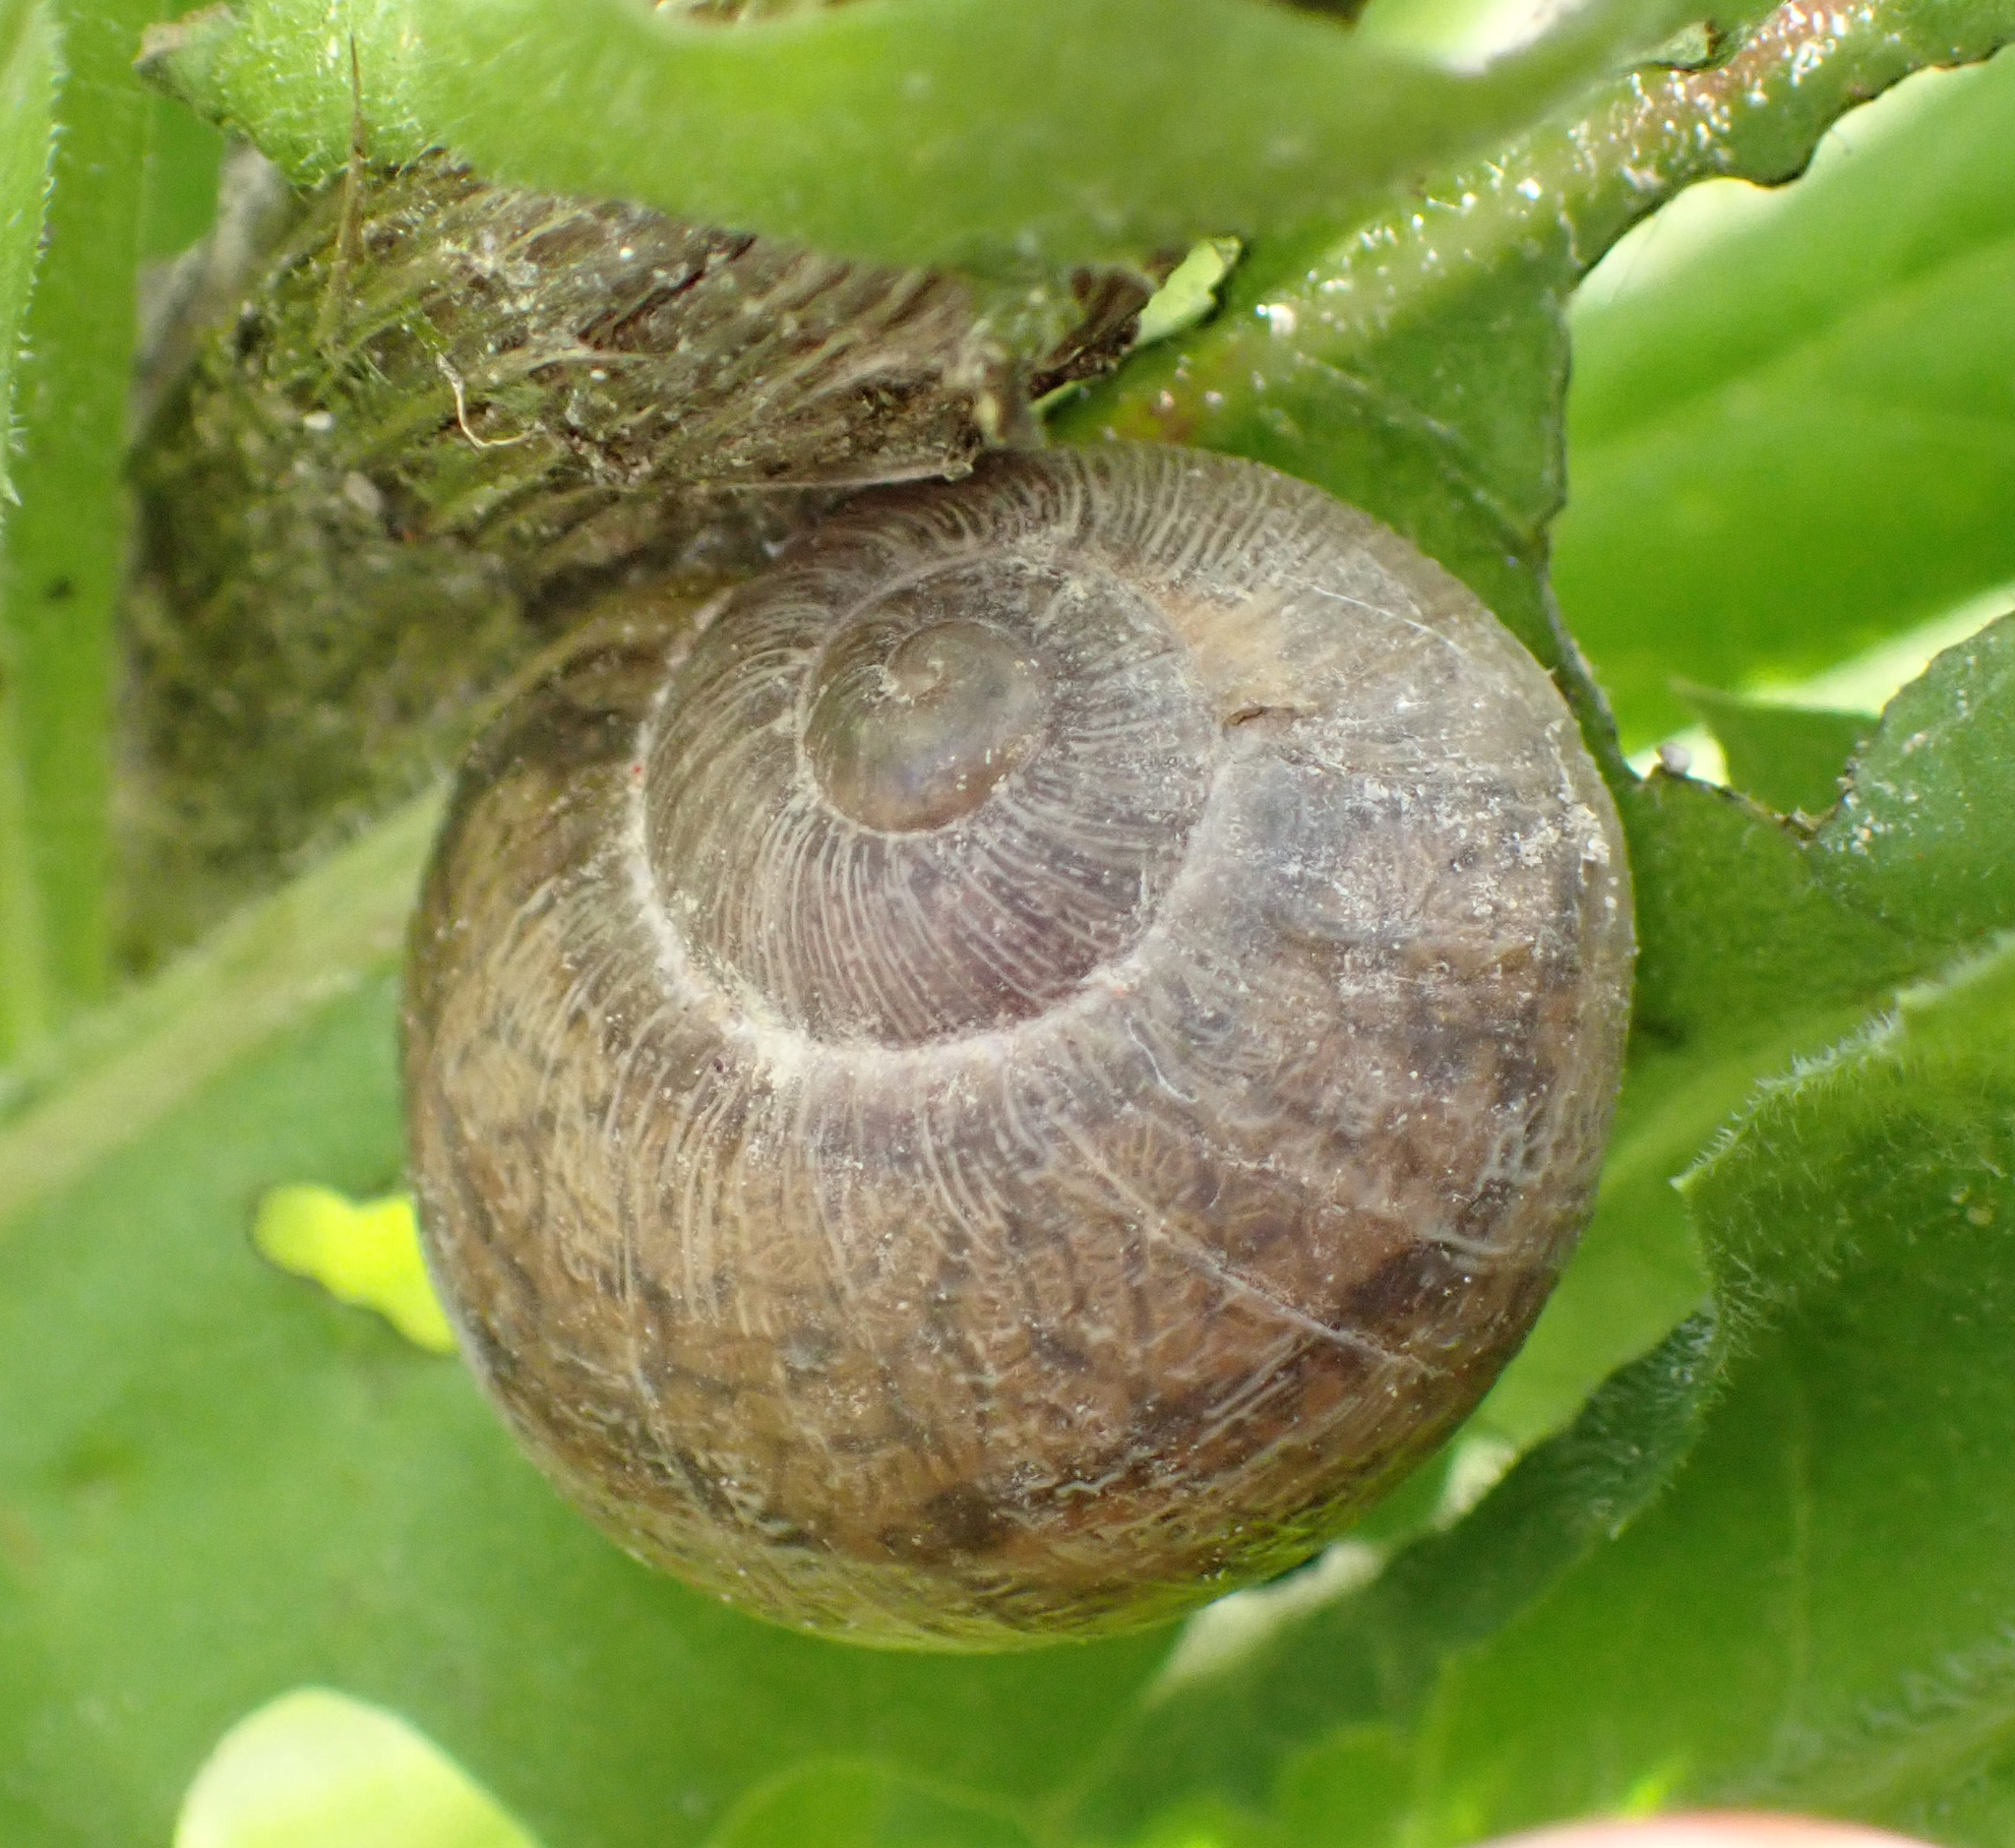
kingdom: Animalia
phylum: Mollusca
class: Gastropoda
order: Stylommatophora
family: Helicidae
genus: Cornu
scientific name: Cornu aspersum
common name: Brown garden snail
